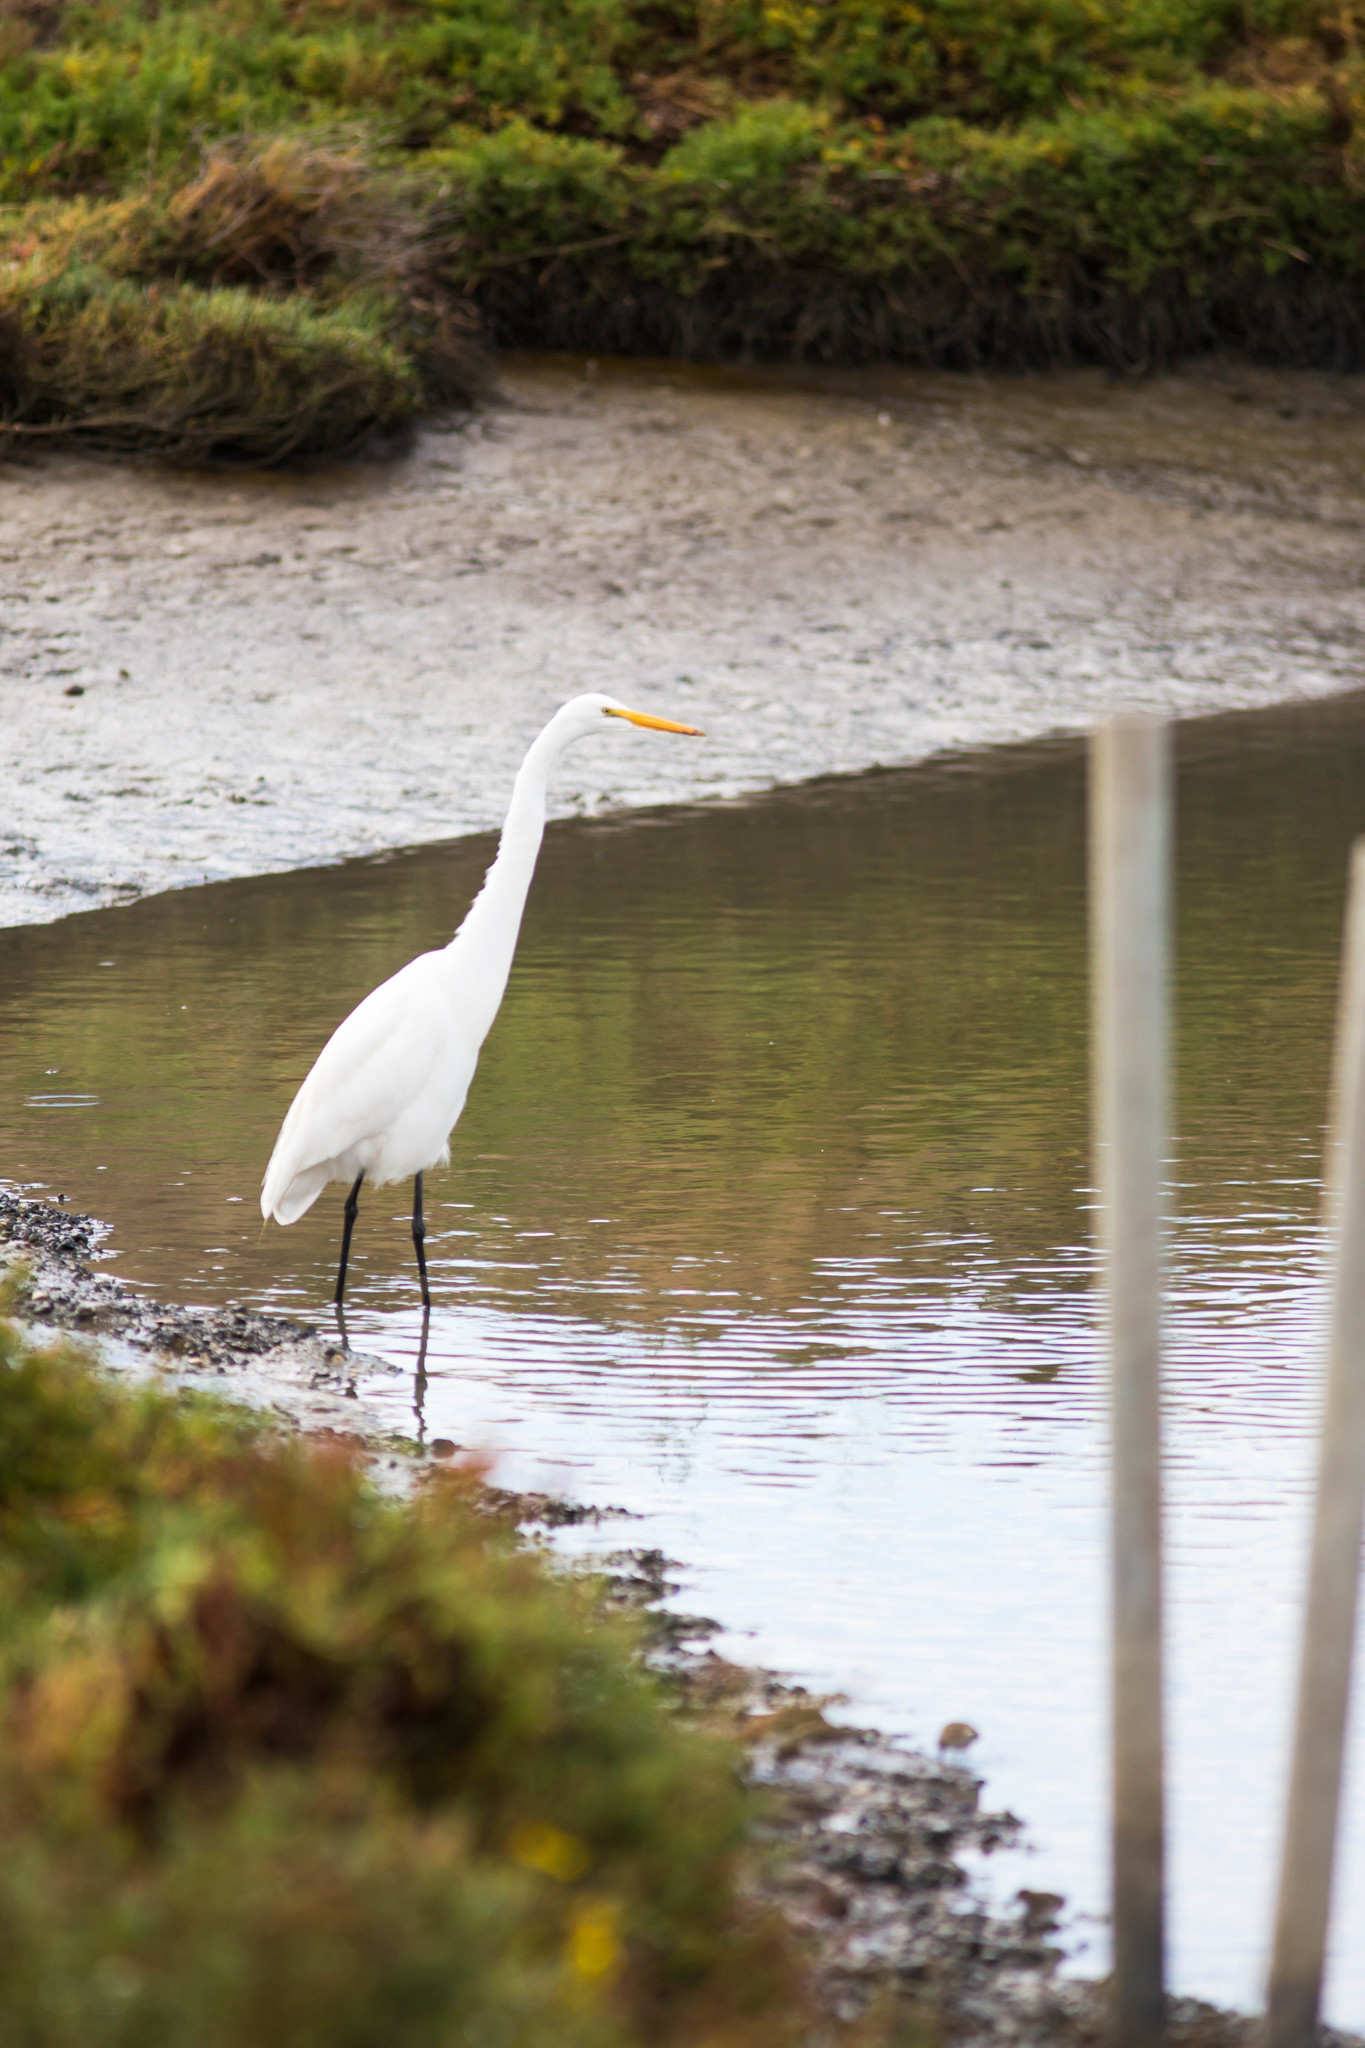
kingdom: Animalia
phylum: Chordata
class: Aves
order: Pelecaniformes
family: Ardeidae
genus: Ardea
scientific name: Ardea alba
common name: Great egret
